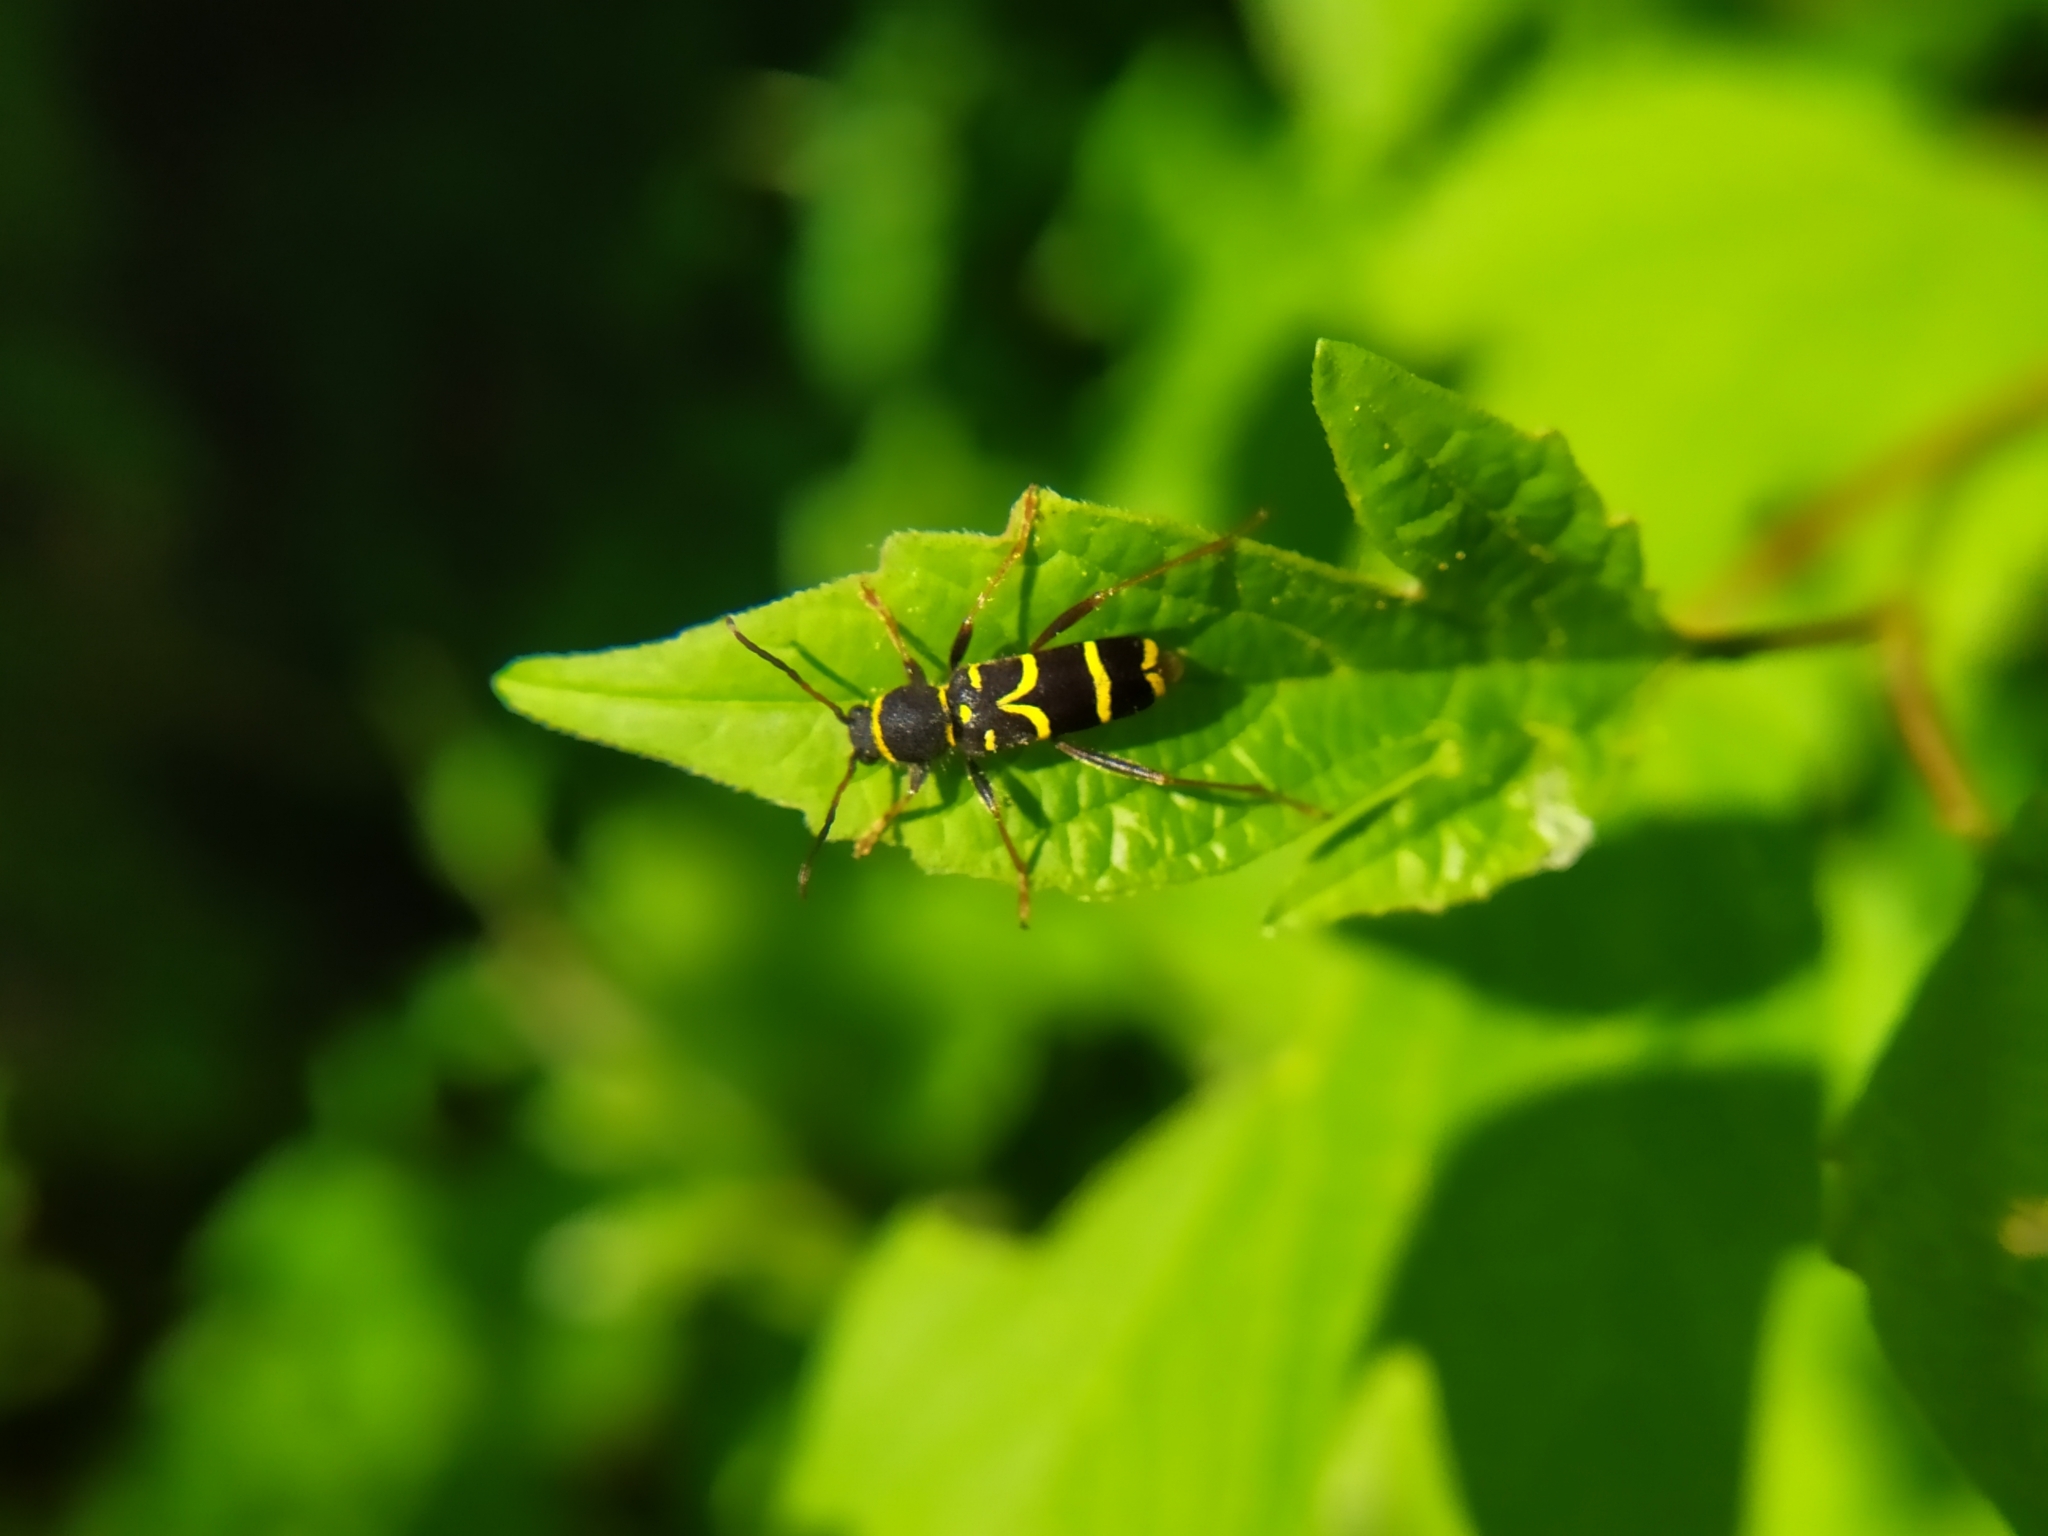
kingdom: Animalia
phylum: Arthropoda
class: Insecta
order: Coleoptera
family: Cerambycidae
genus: Clytus
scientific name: Clytus arietis
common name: Wasp beetle
